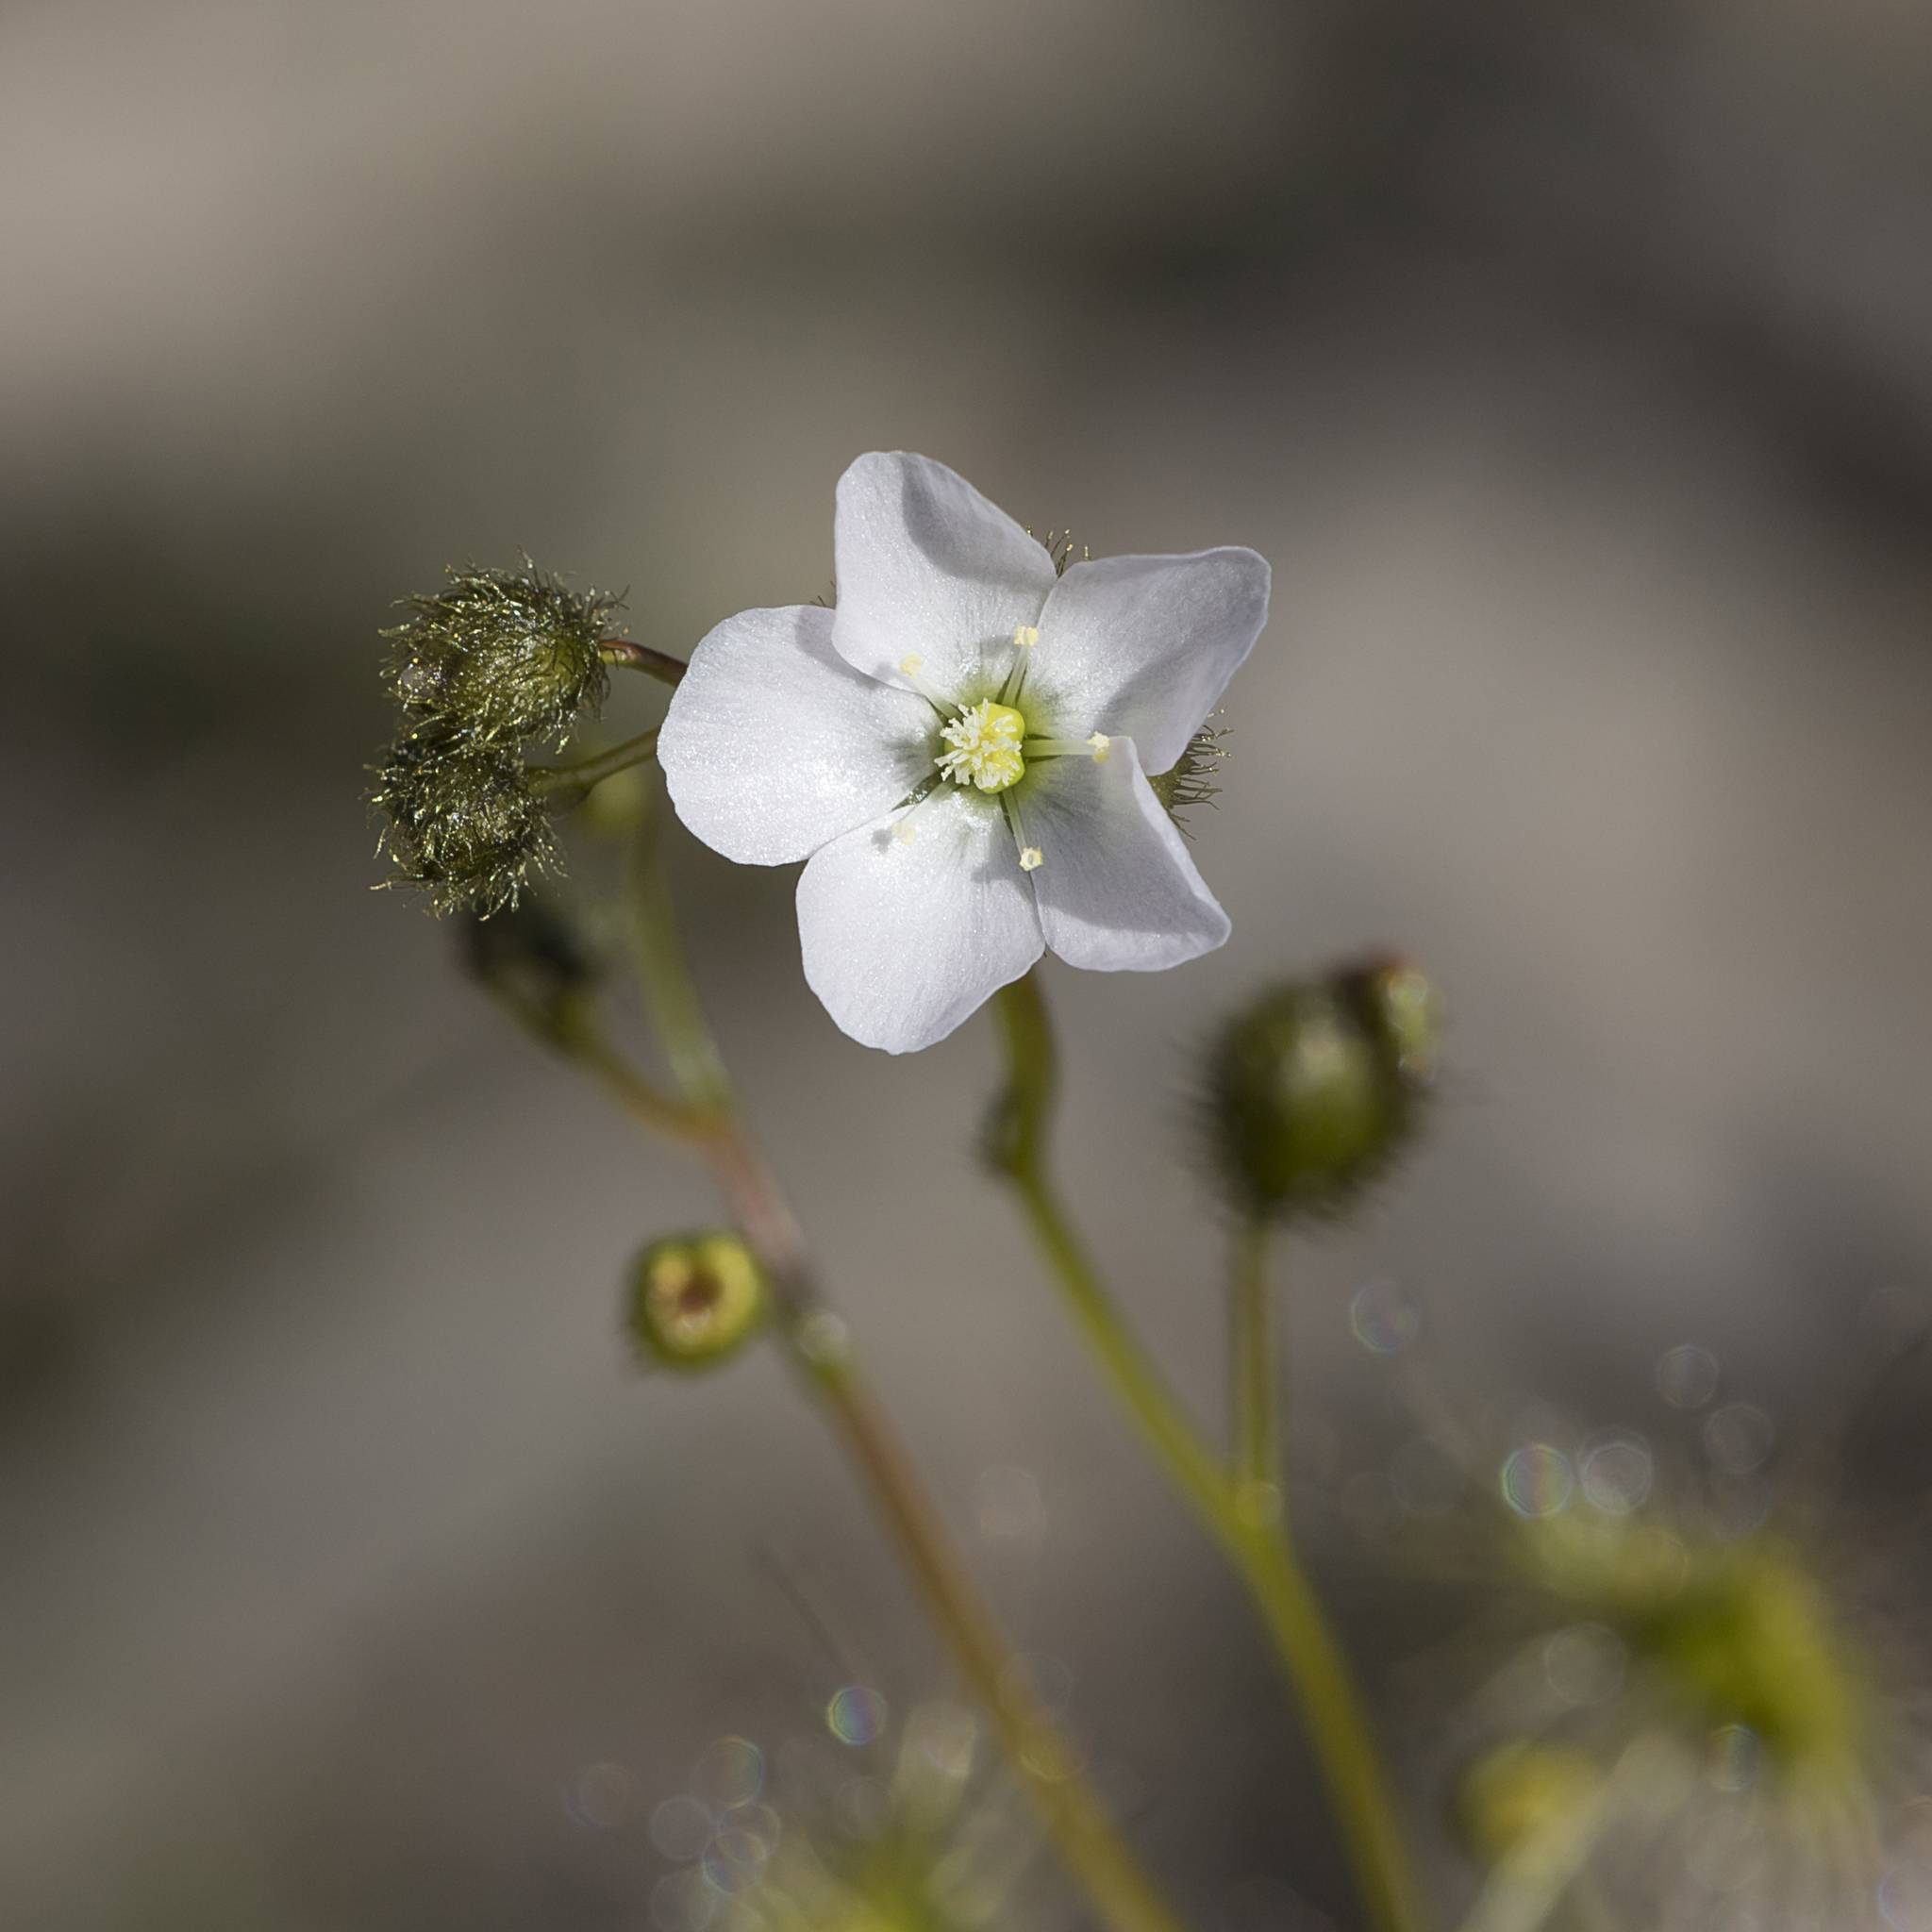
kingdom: Plantae
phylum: Tracheophyta
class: Magnoliopsida
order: Caryophyllales
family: Droseraceae
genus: Drosera
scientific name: Drosera gunniana
